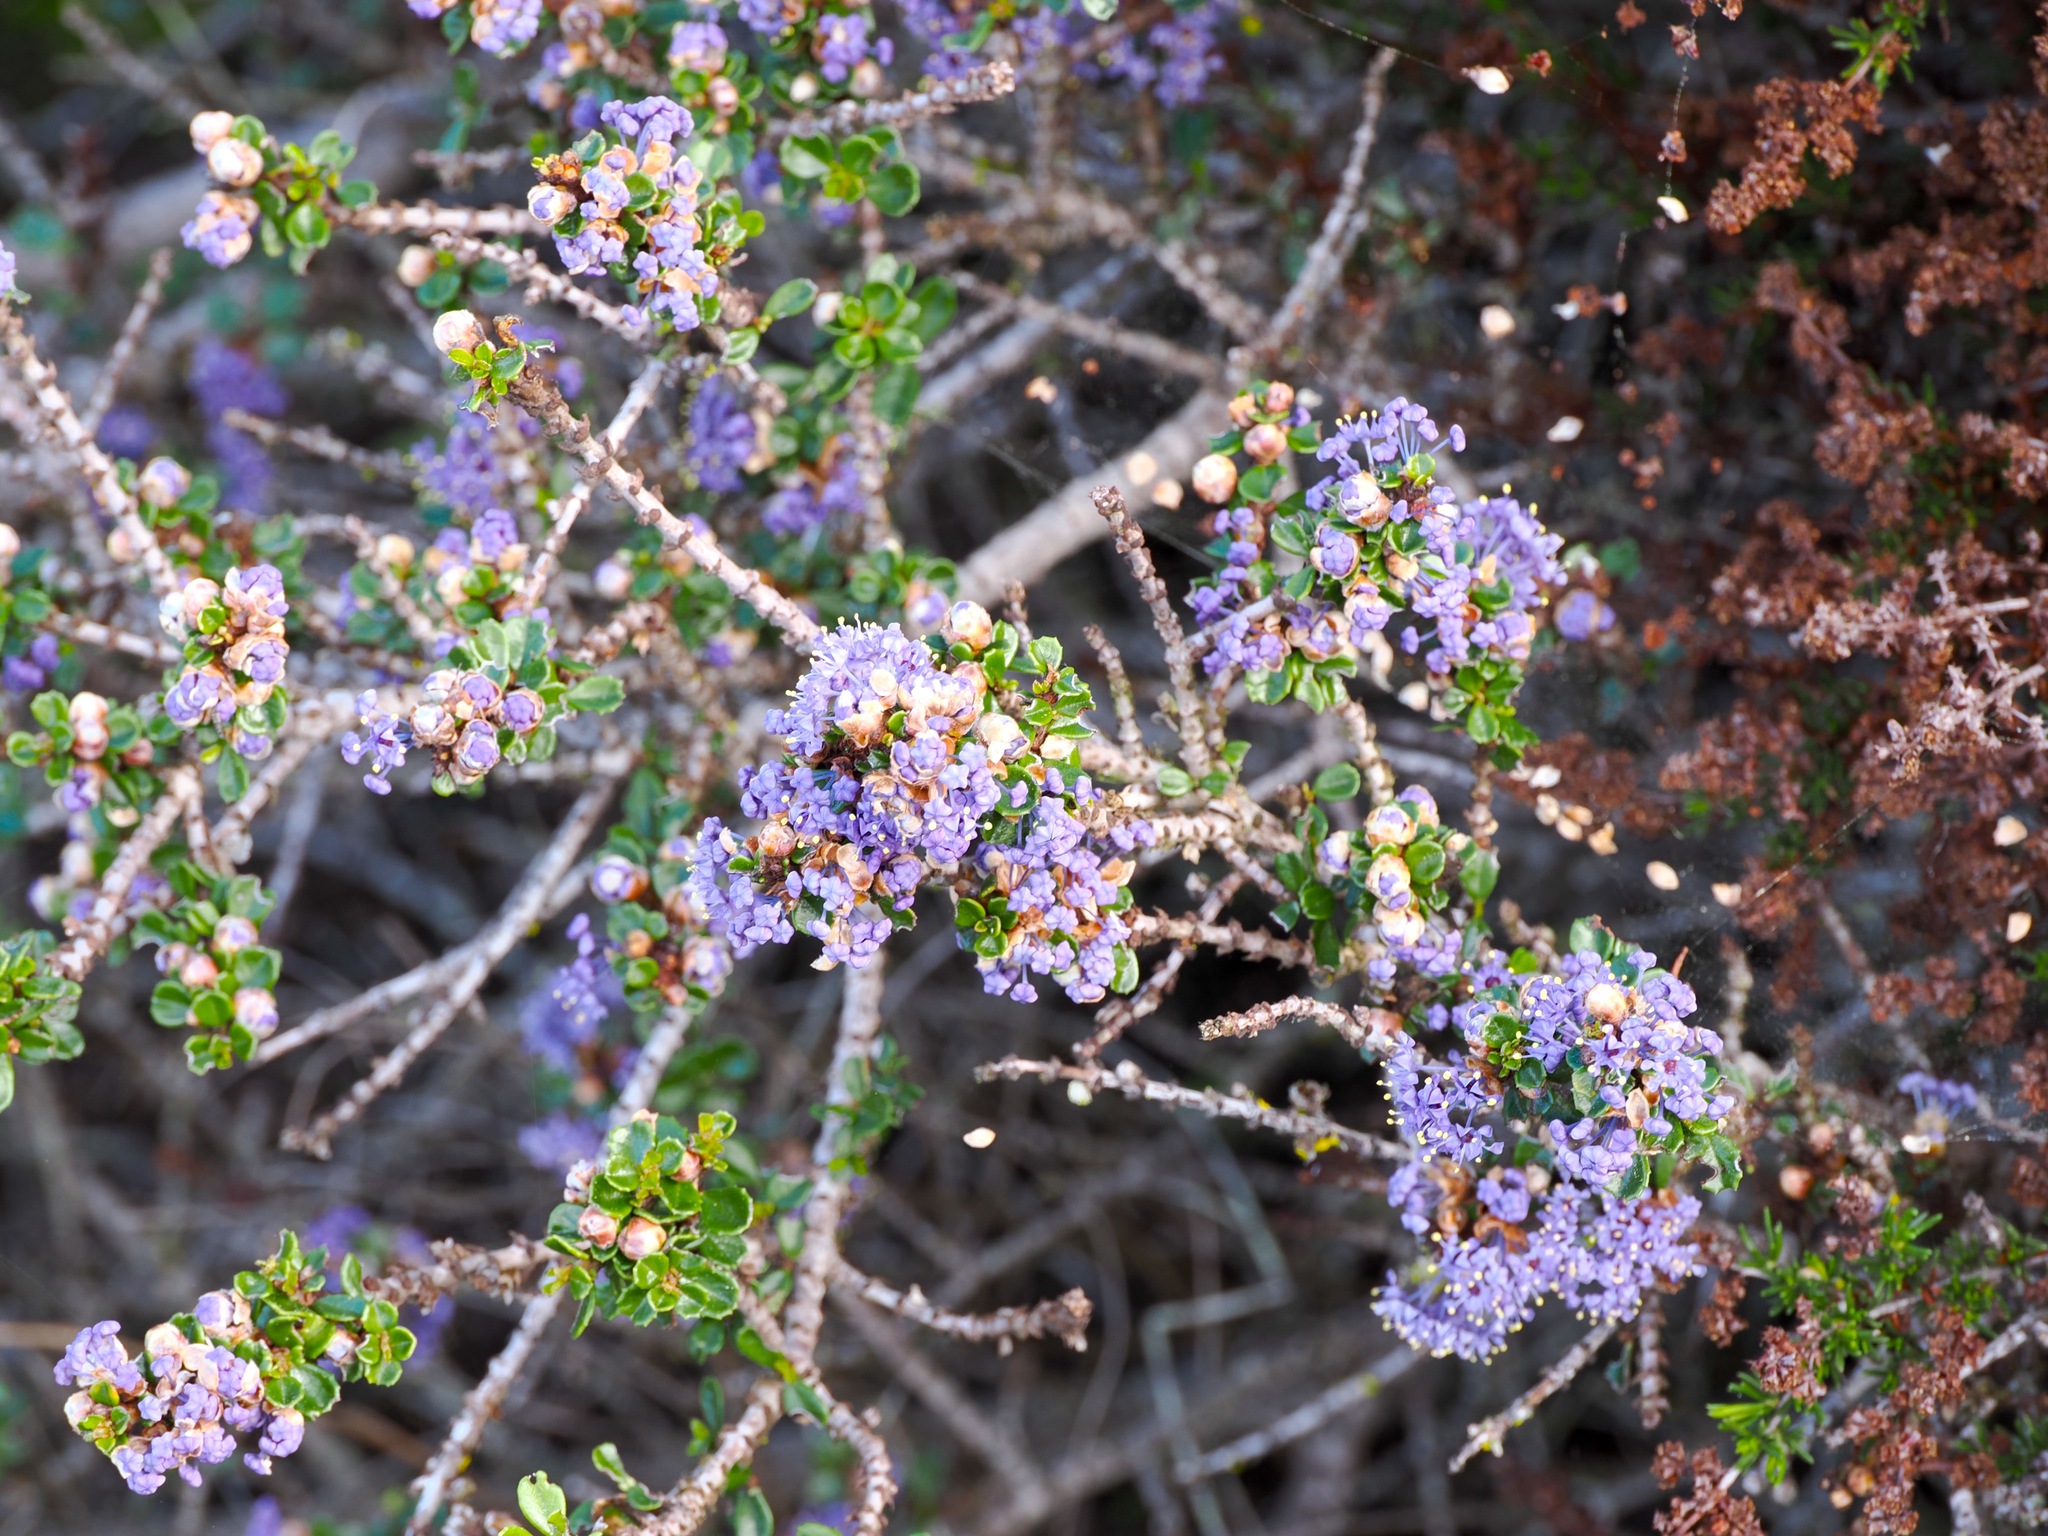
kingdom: Plantae
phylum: Tracheophyta
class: Magnoliopsida
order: Rosales
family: Rhamnaceae
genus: Ceanothus
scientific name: Ceanothus cuneatus
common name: Cuneate ceanothus
